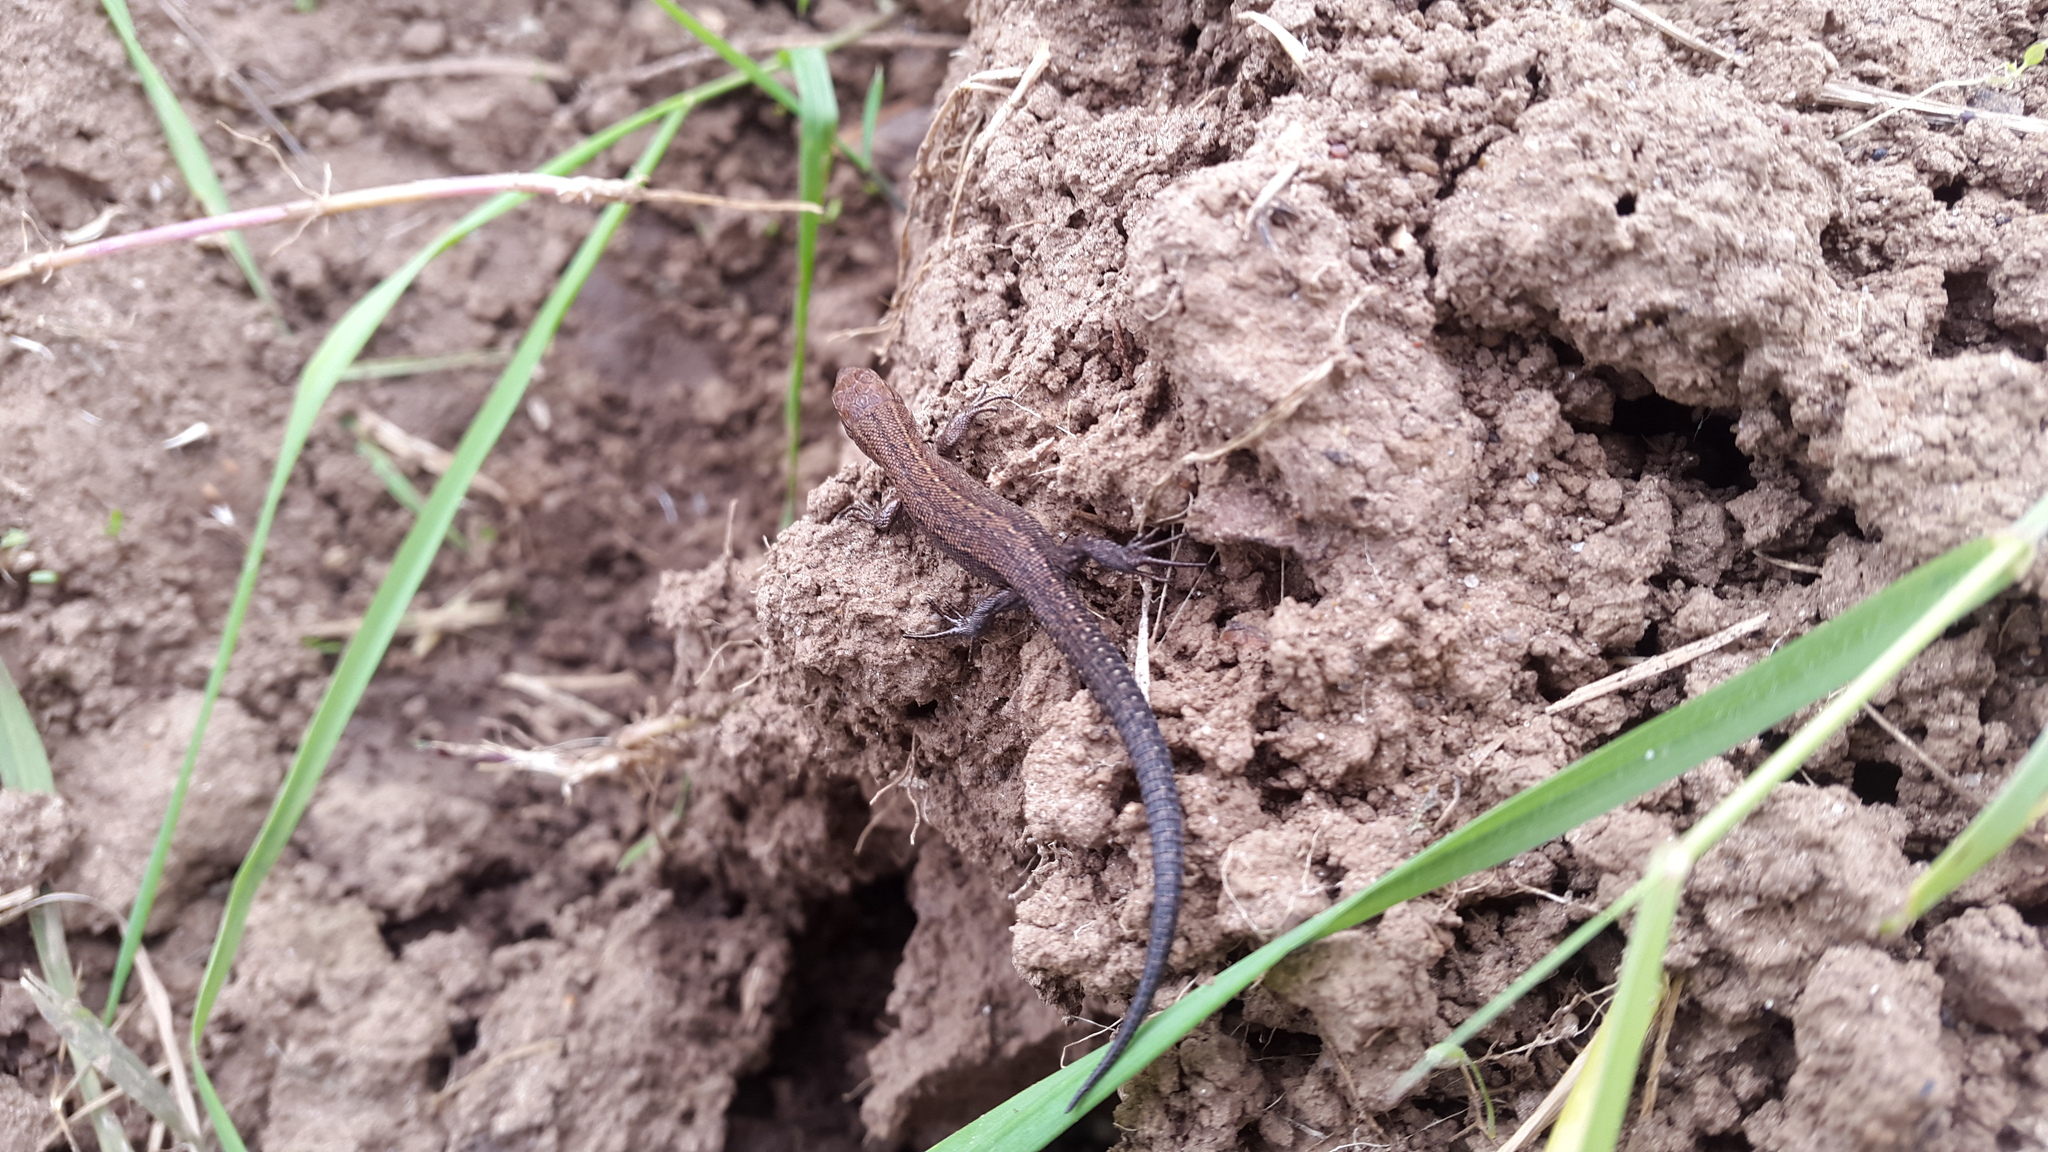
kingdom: Animalia
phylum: Chordata
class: Squamata
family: Lacertidae
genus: Zootoca
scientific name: Zootoca vivipara
